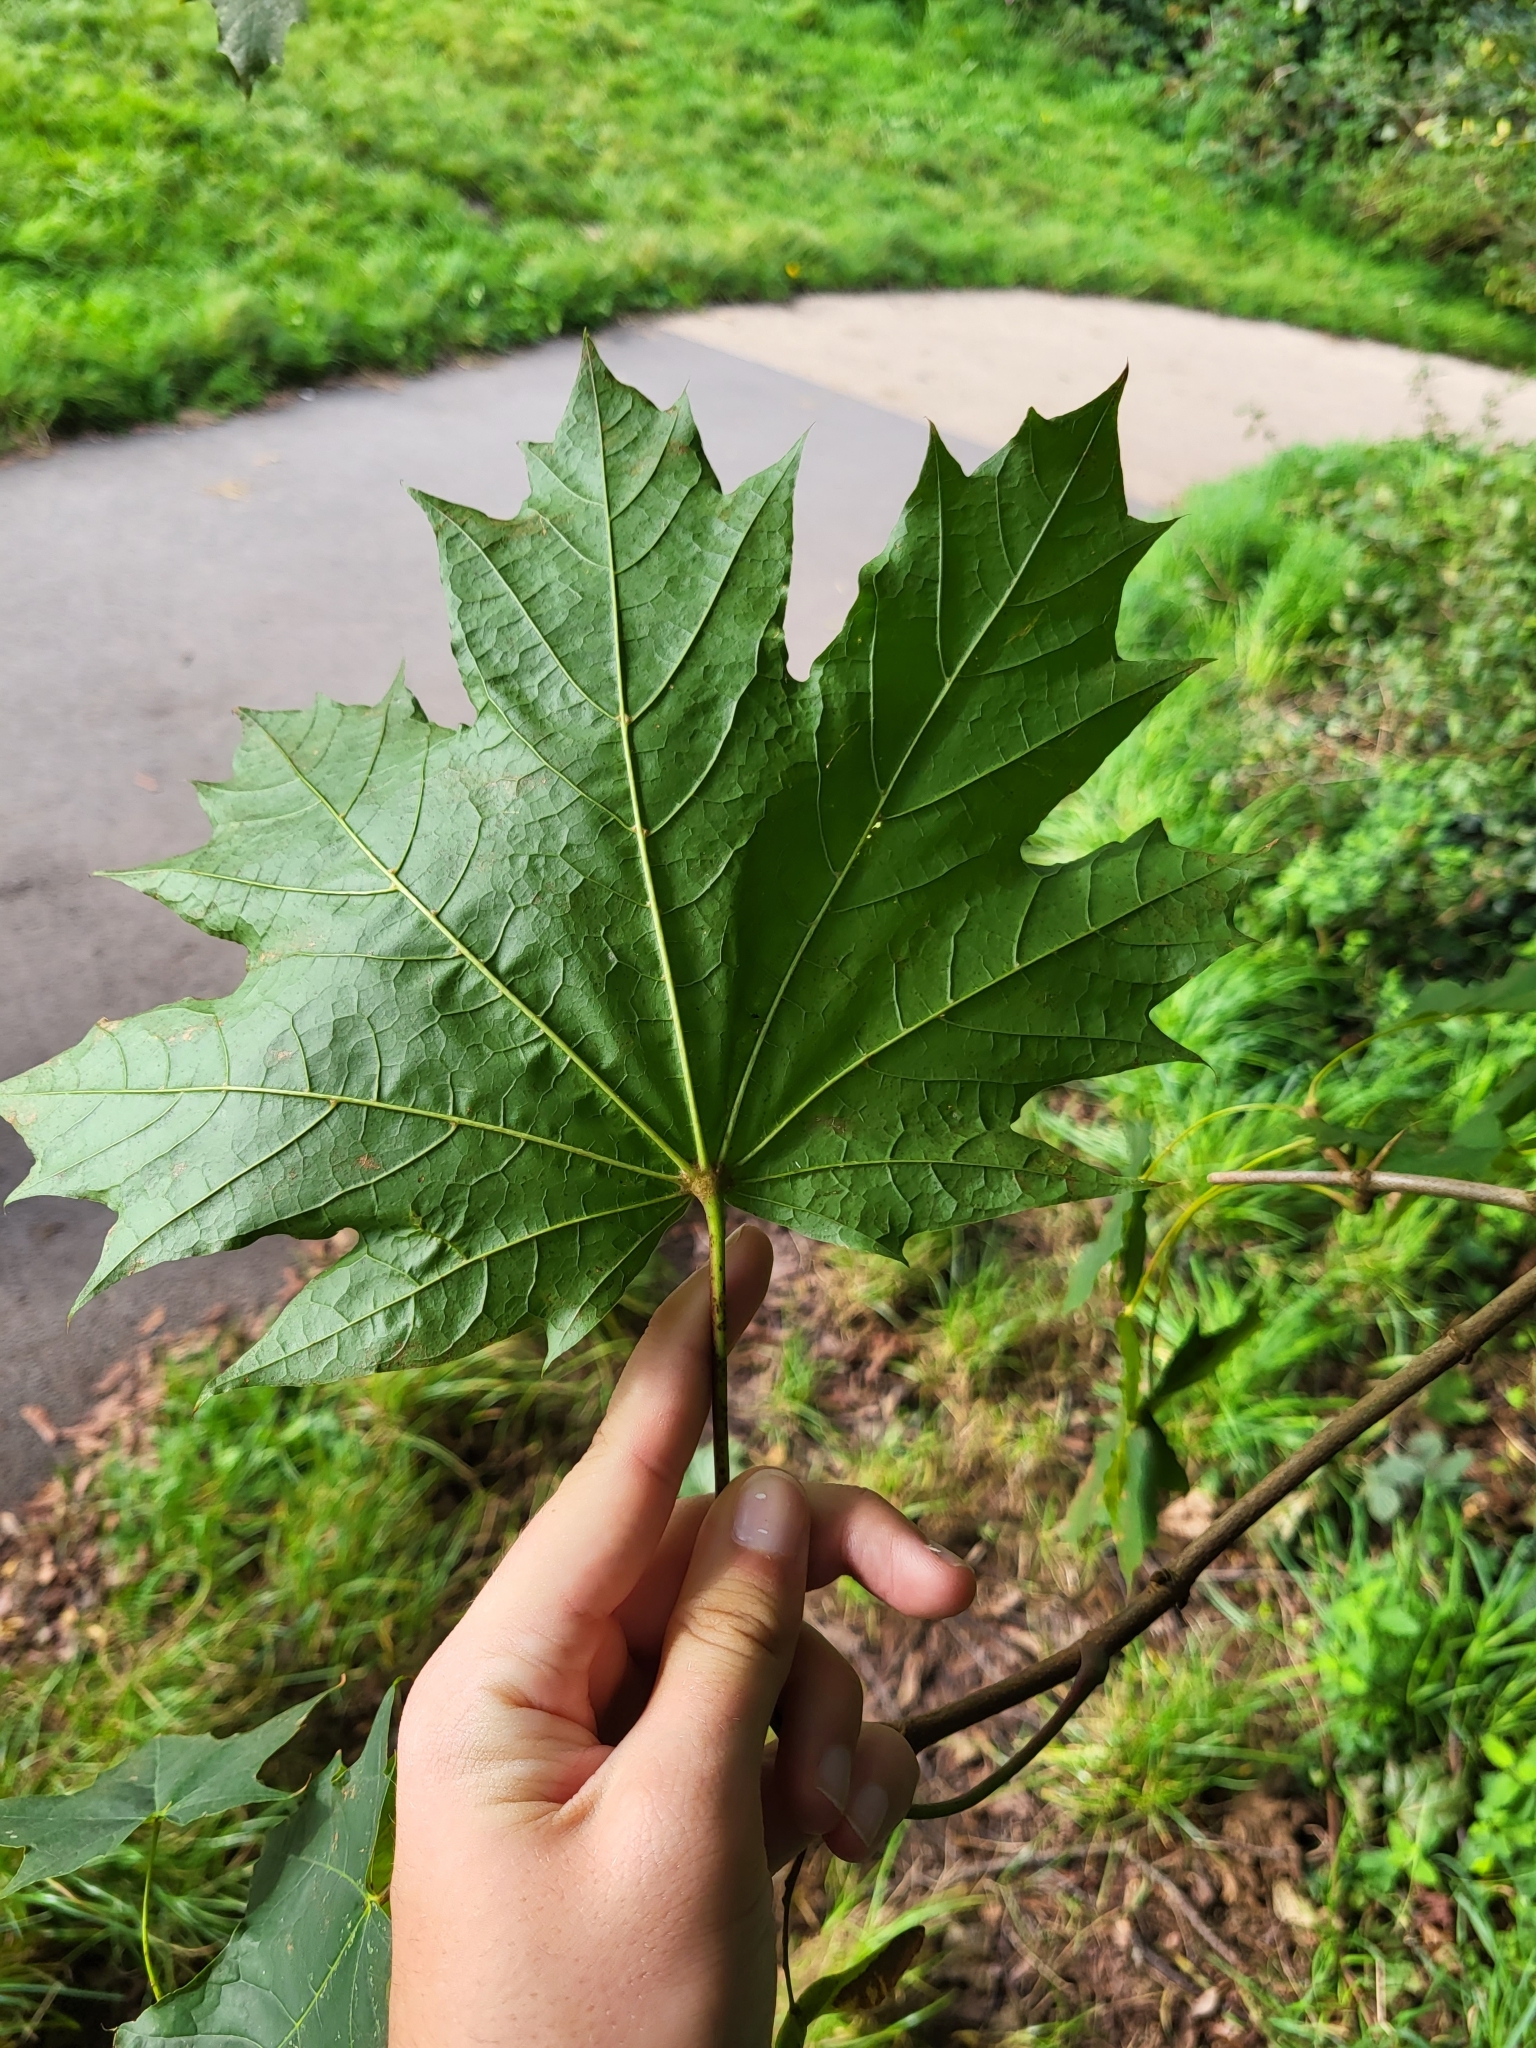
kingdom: Plantae
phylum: Tracheophyta
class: Magnoliopsida
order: Sapindales
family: Sapindaceae
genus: Acer
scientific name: Acer platanoides
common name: Norway maple
